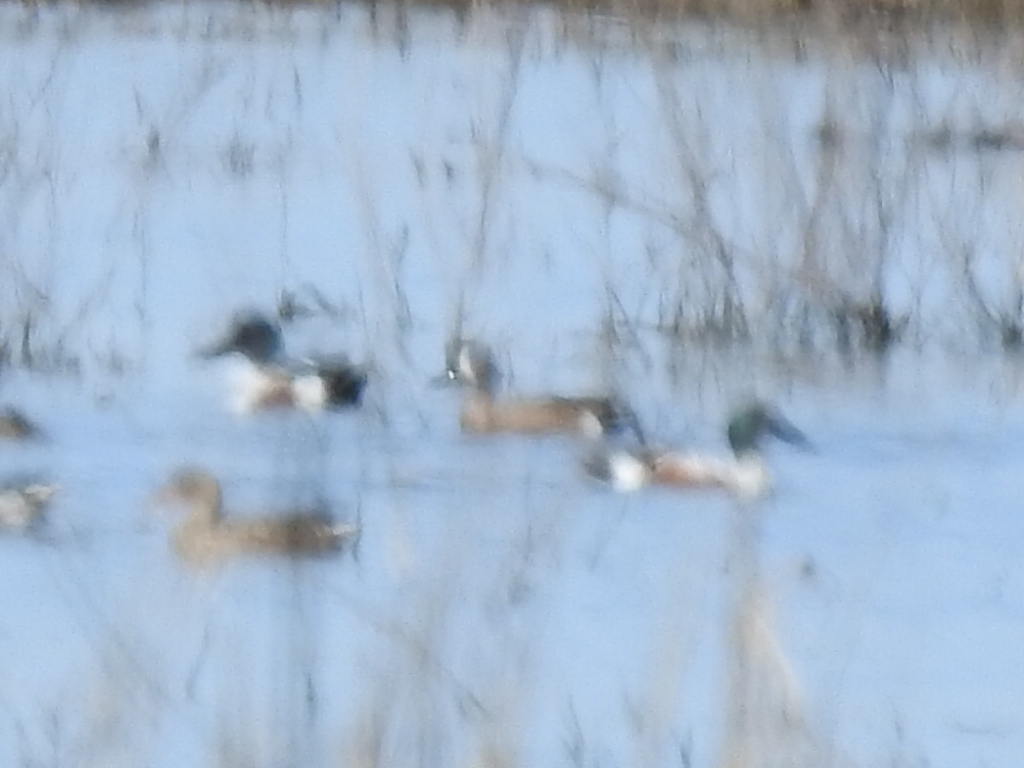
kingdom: Animalia
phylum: Chordata
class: Aves
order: Anseriformes
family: Anatidae
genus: Spatula
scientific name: Spatula discors
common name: Blue-winged teal
